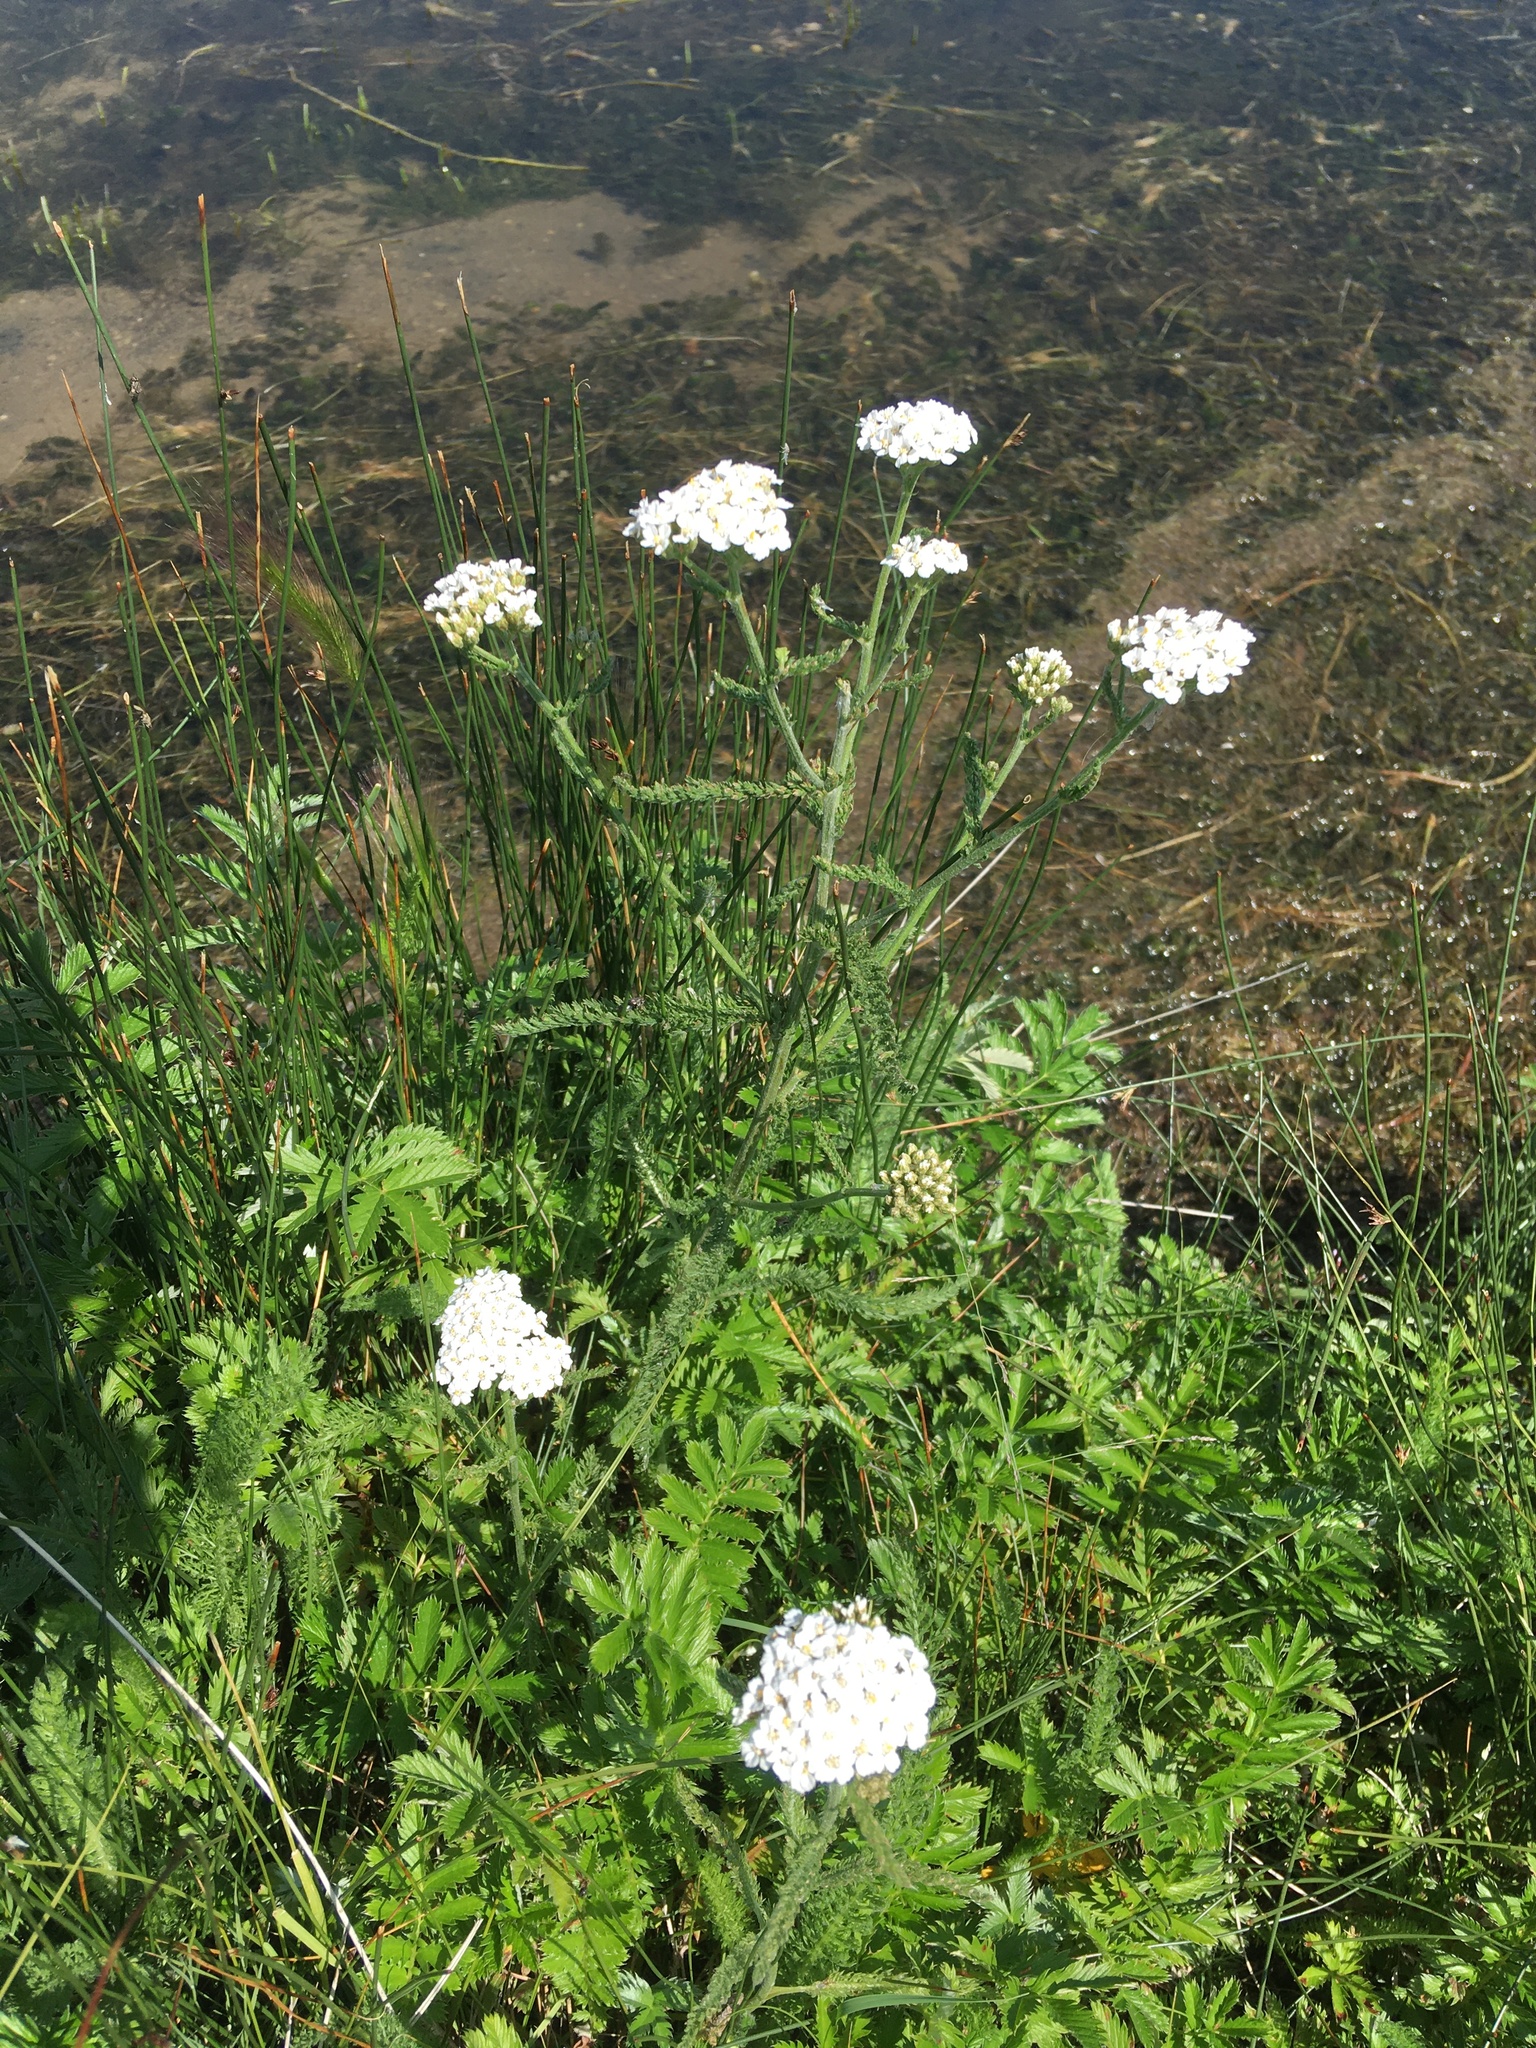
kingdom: Plantae
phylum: Tracheophyta
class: Magnoliopsida
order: Asterales
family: Asteraceae
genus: Achillea
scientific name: Achillea millefolium
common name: Yarrow
